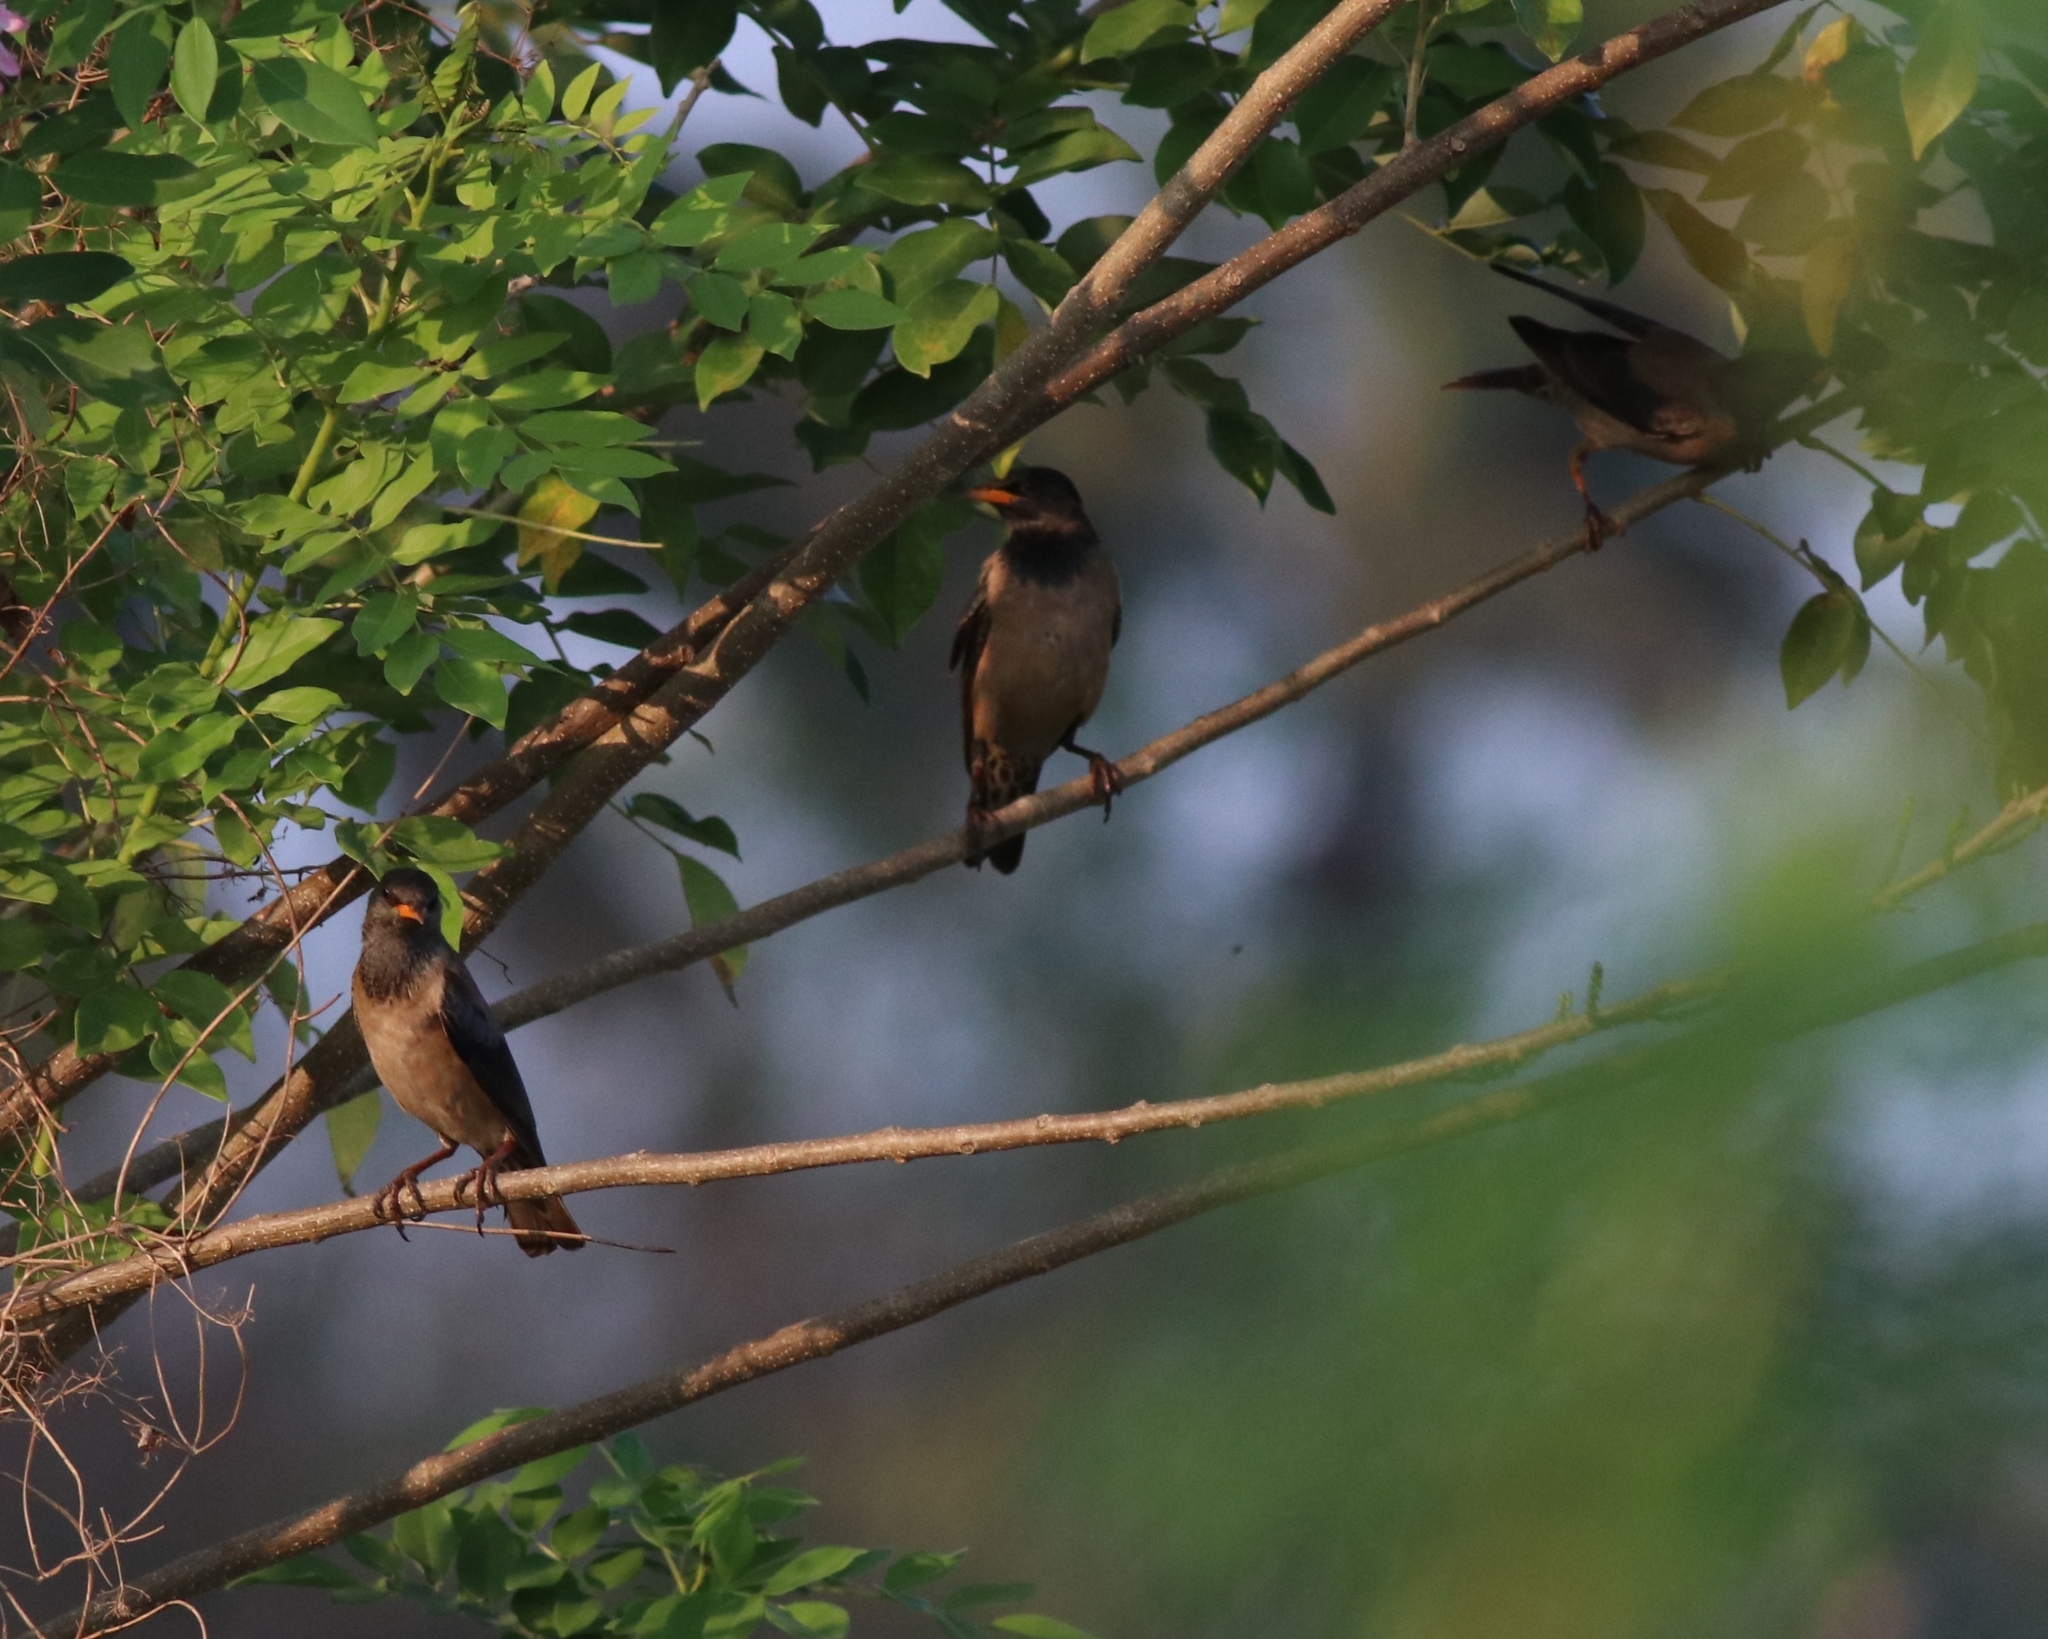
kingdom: Animalia
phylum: Chordata
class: Aves
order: Passeriformes
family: Sturnidae
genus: Pastor
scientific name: Pastor roseus
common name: Rosy starling
